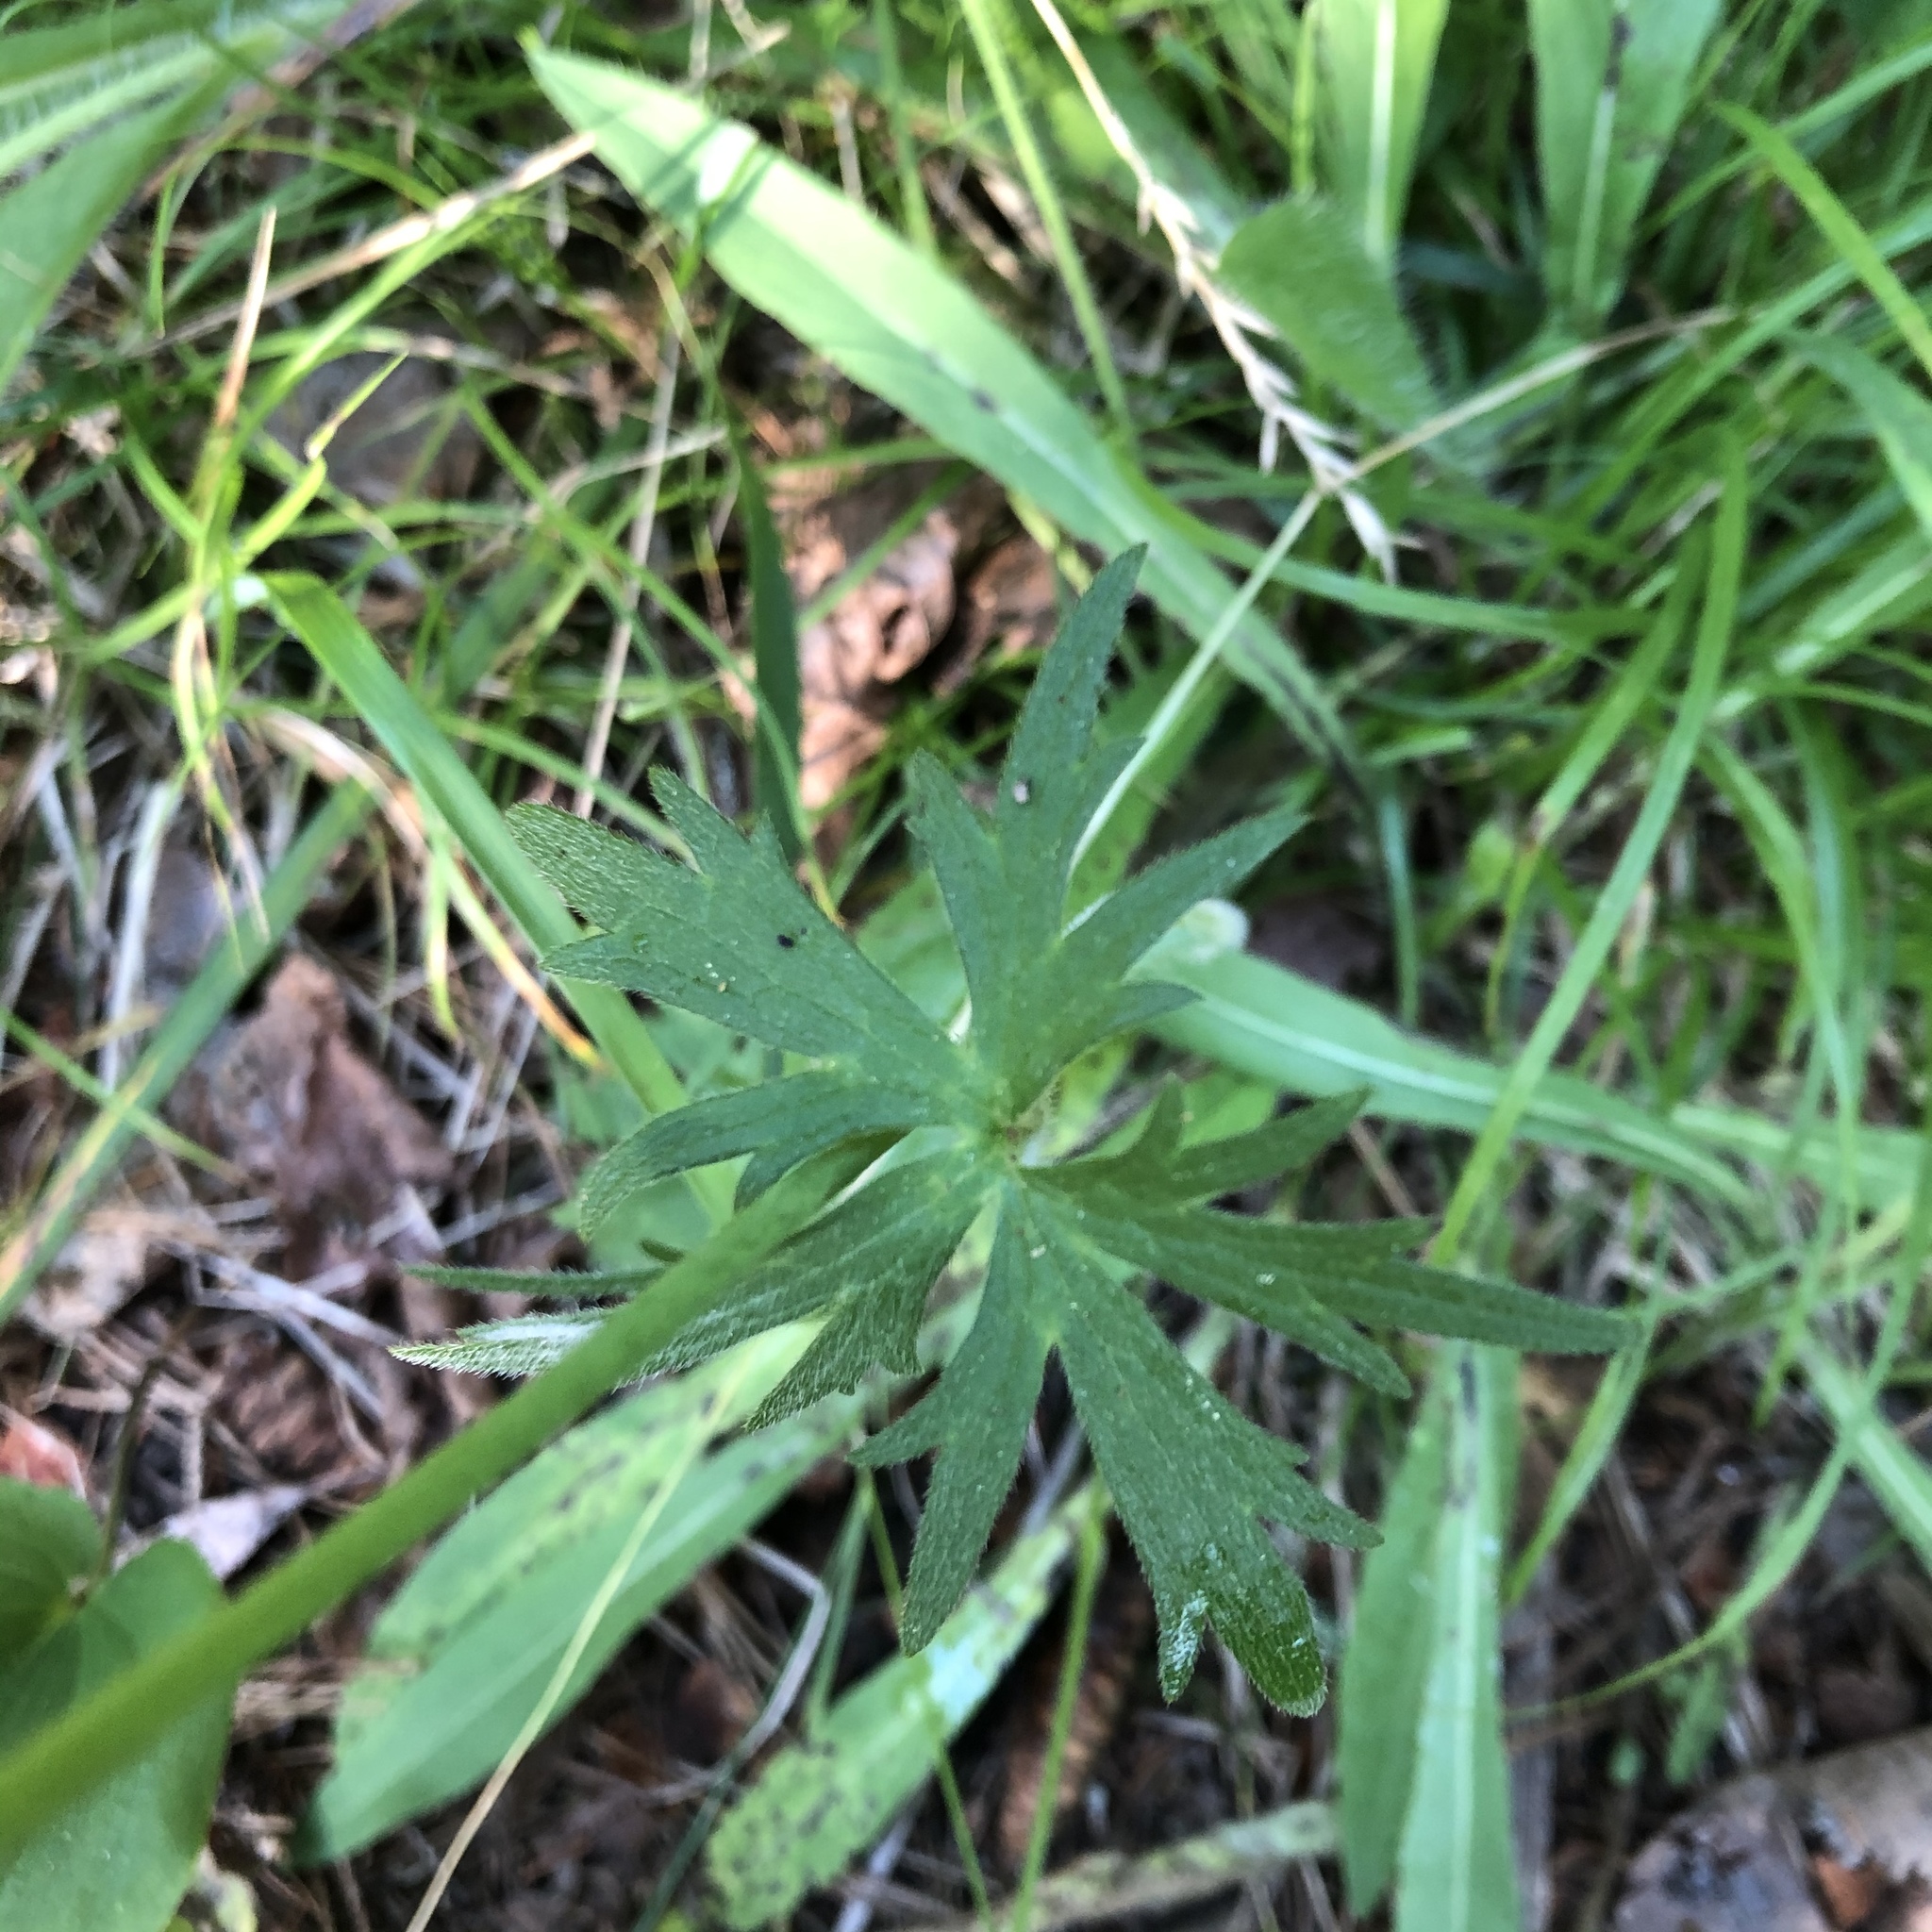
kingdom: Plantae
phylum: Tracheophyta
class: Magnoliopsida
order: Ranunculales
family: Ranunculaceae
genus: Ranunculus
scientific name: Ranunculus acris
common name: Meadow buttercup
